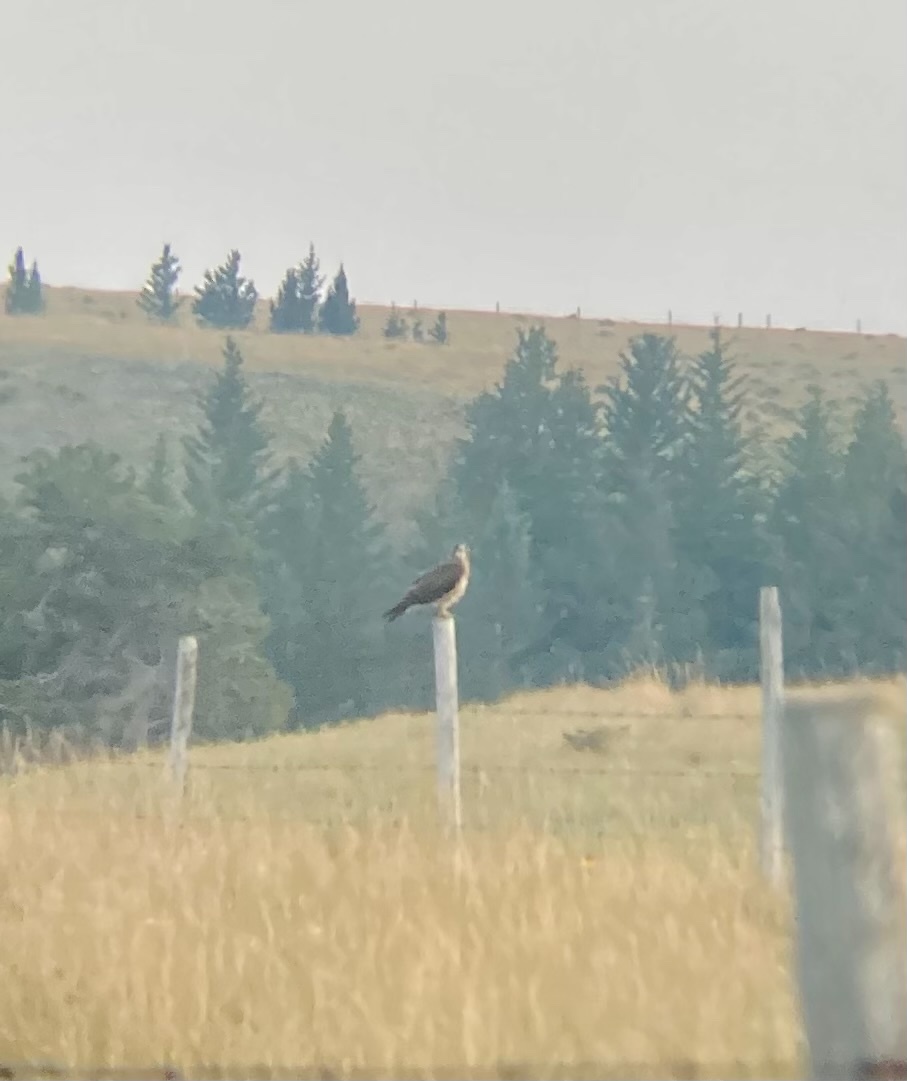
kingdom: Animalia
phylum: Chordata
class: Aves
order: Accipitriformes
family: Accipitridae
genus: Buteo
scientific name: Buteo swainsoni
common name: Swainson's hawk
